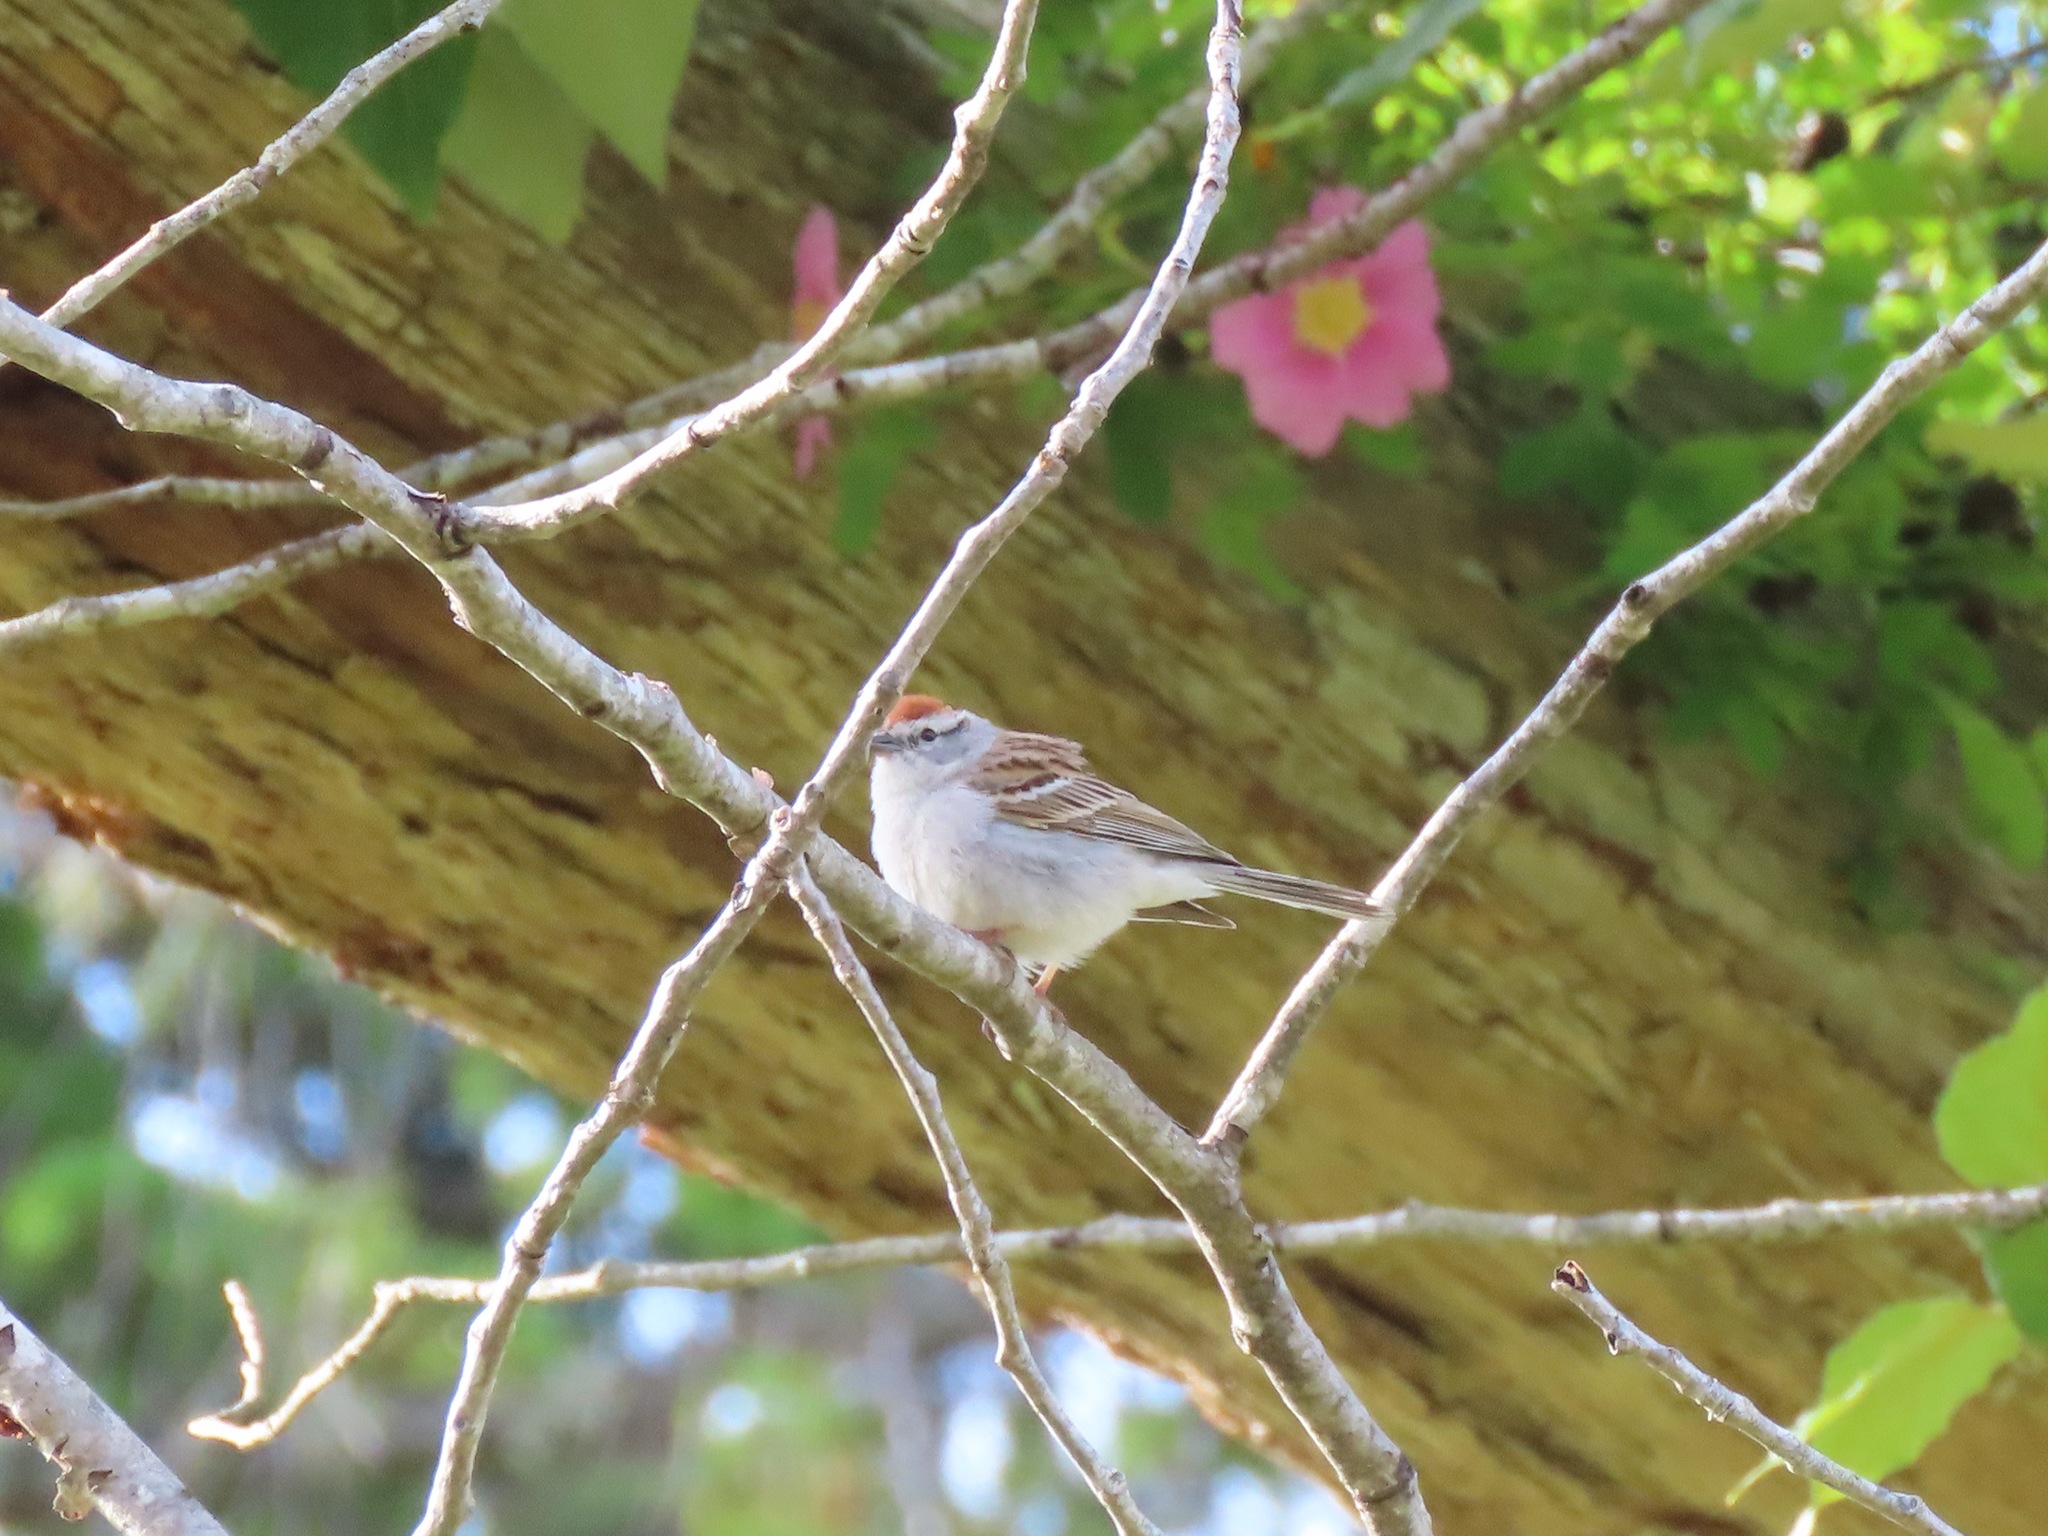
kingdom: Animalia
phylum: Chordata
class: Aves
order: Passeriformes
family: Passerellidae
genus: Spizella
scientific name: Spizella passerina
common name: Chipping sparrow
